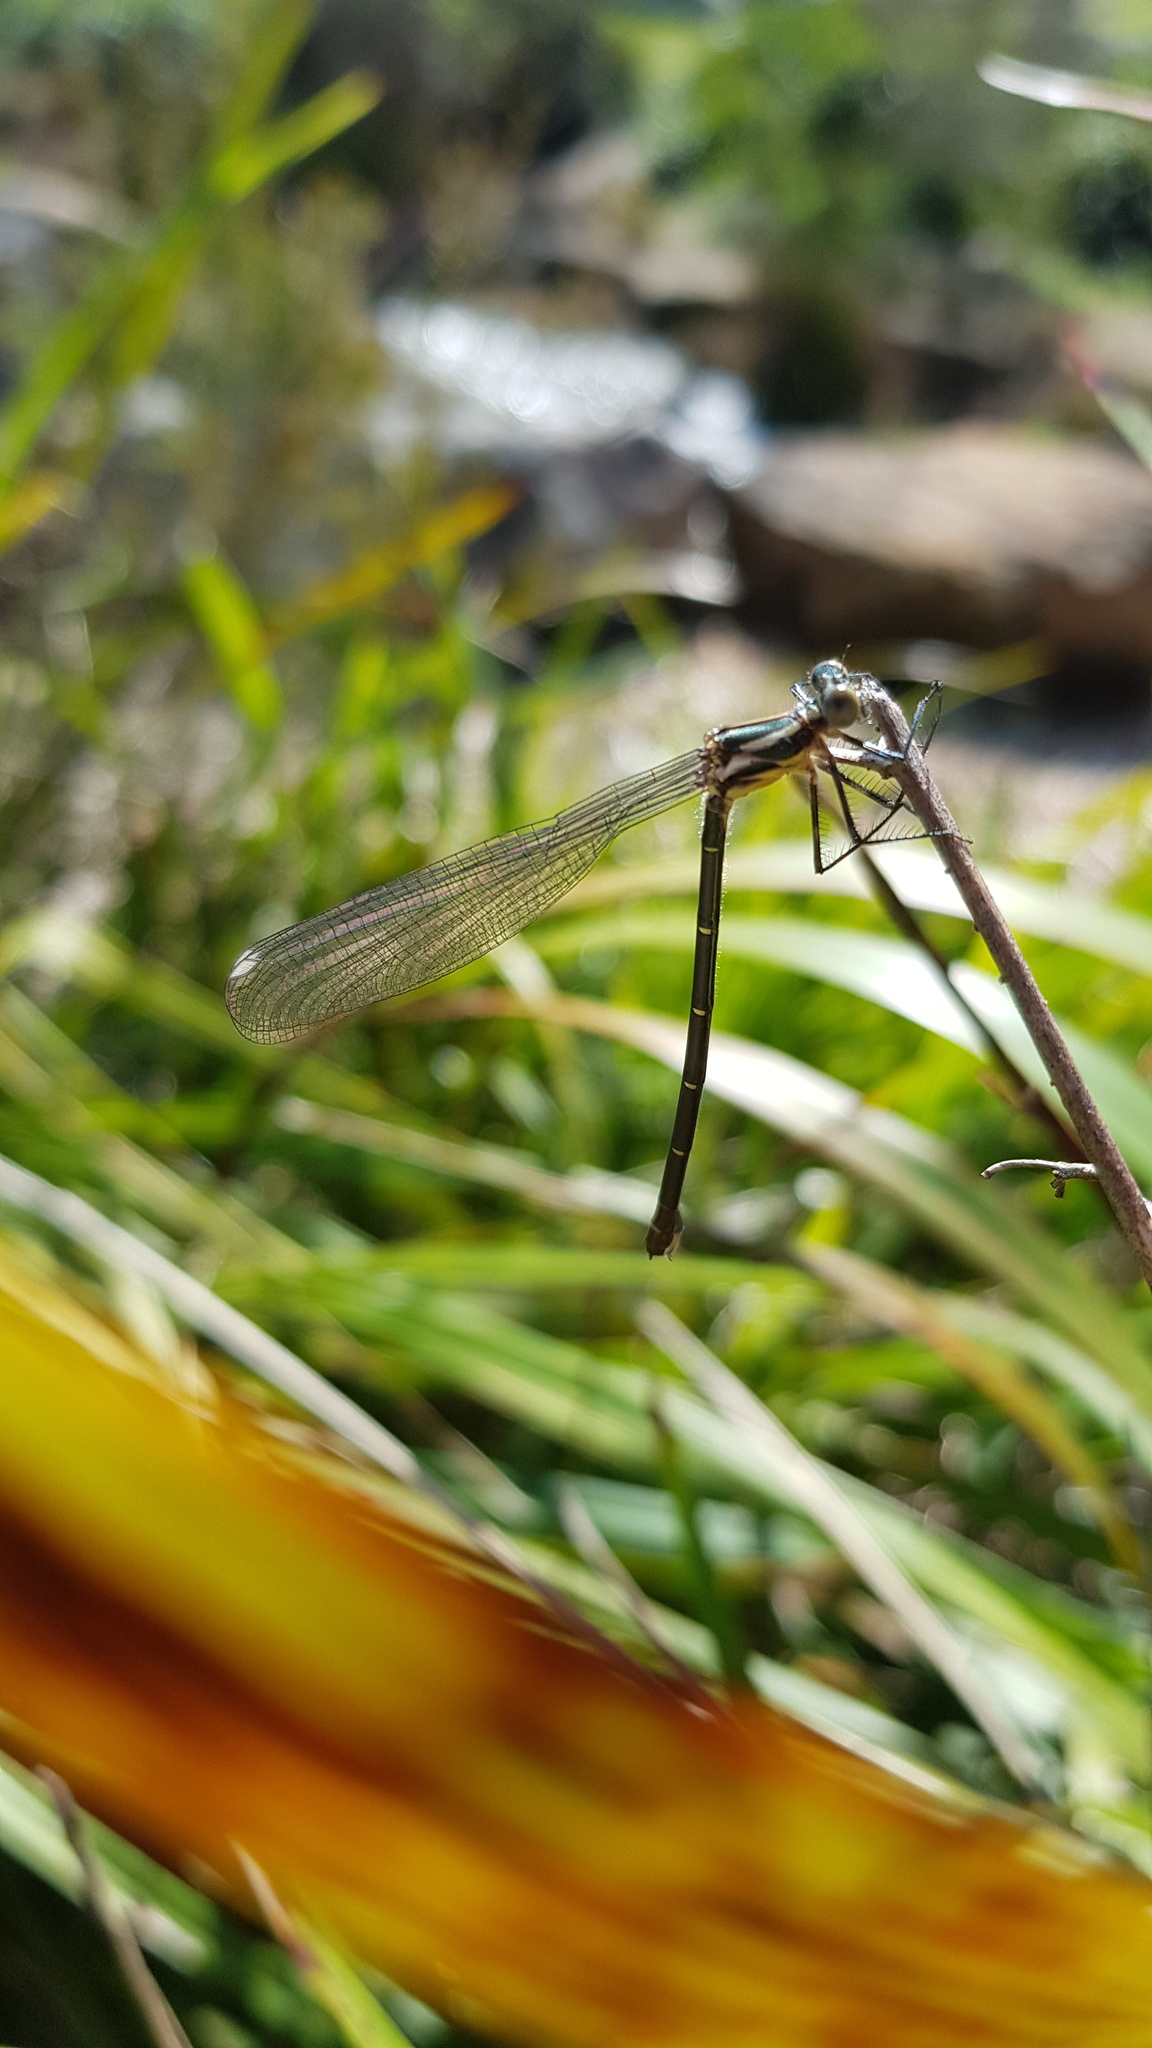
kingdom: Animalia
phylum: Arthropoda
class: Insecta
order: Odonata
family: Argiolestidae
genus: Austroargiolestes
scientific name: Austroargiolestes icteromelas
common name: Common flatwing
